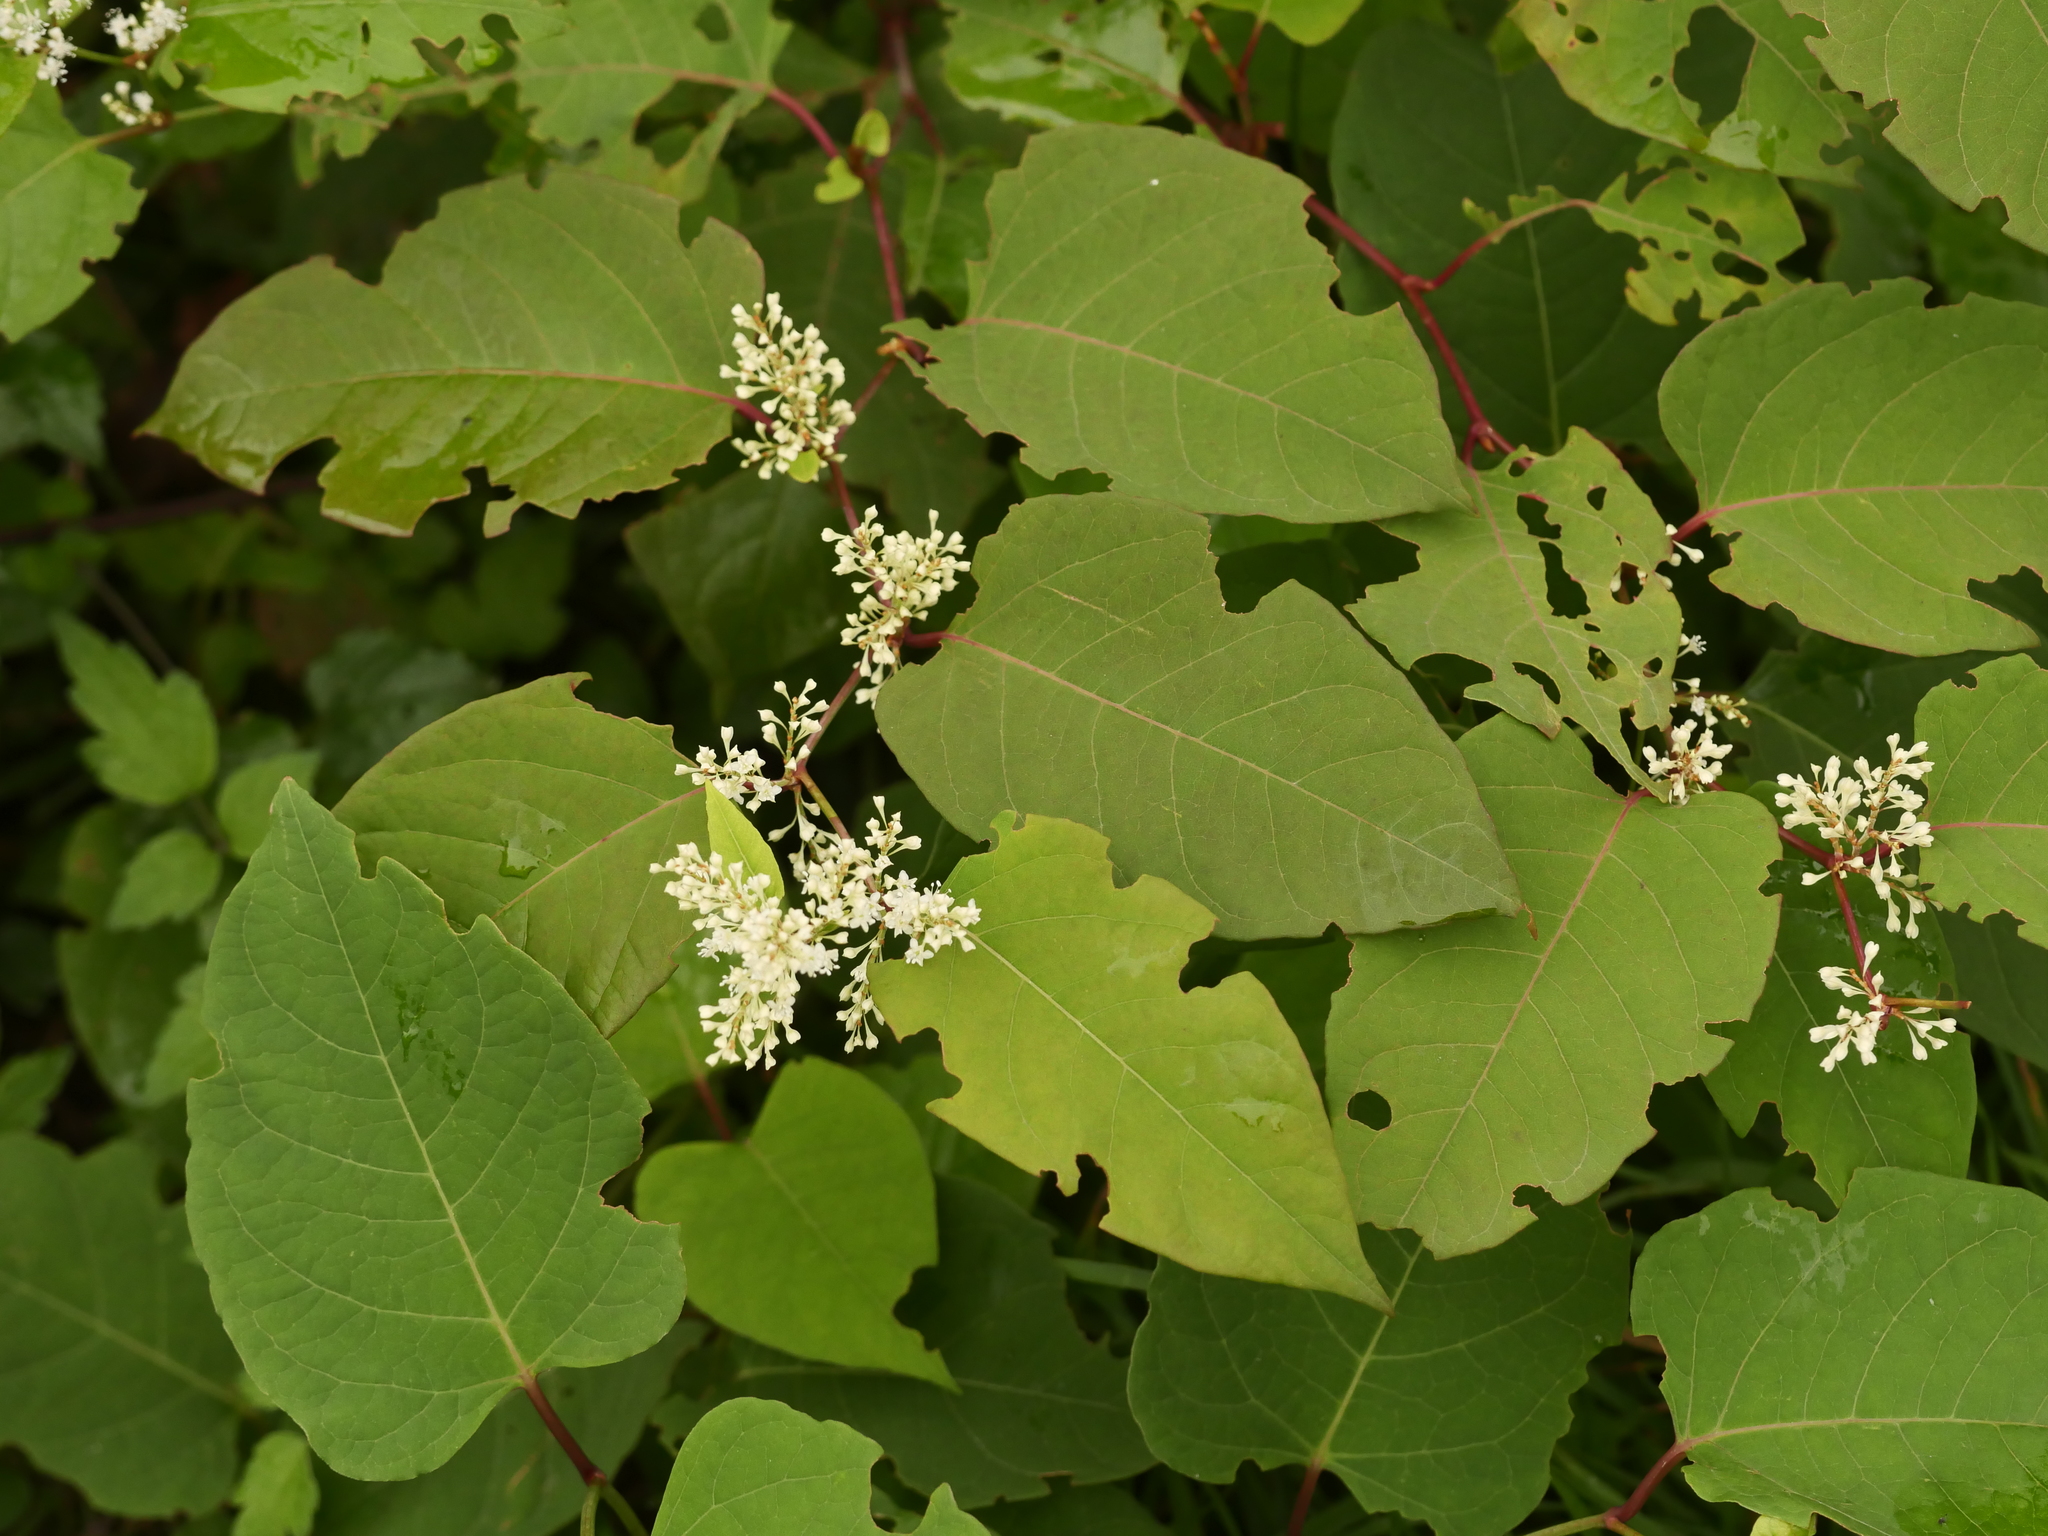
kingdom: Plantae
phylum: Tracheophyta
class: Magnoliopsida
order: Caryophyllales
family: Polygonaceae
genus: Reynoutria
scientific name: Reynoutria bohemica
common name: Bohemian knotweed
